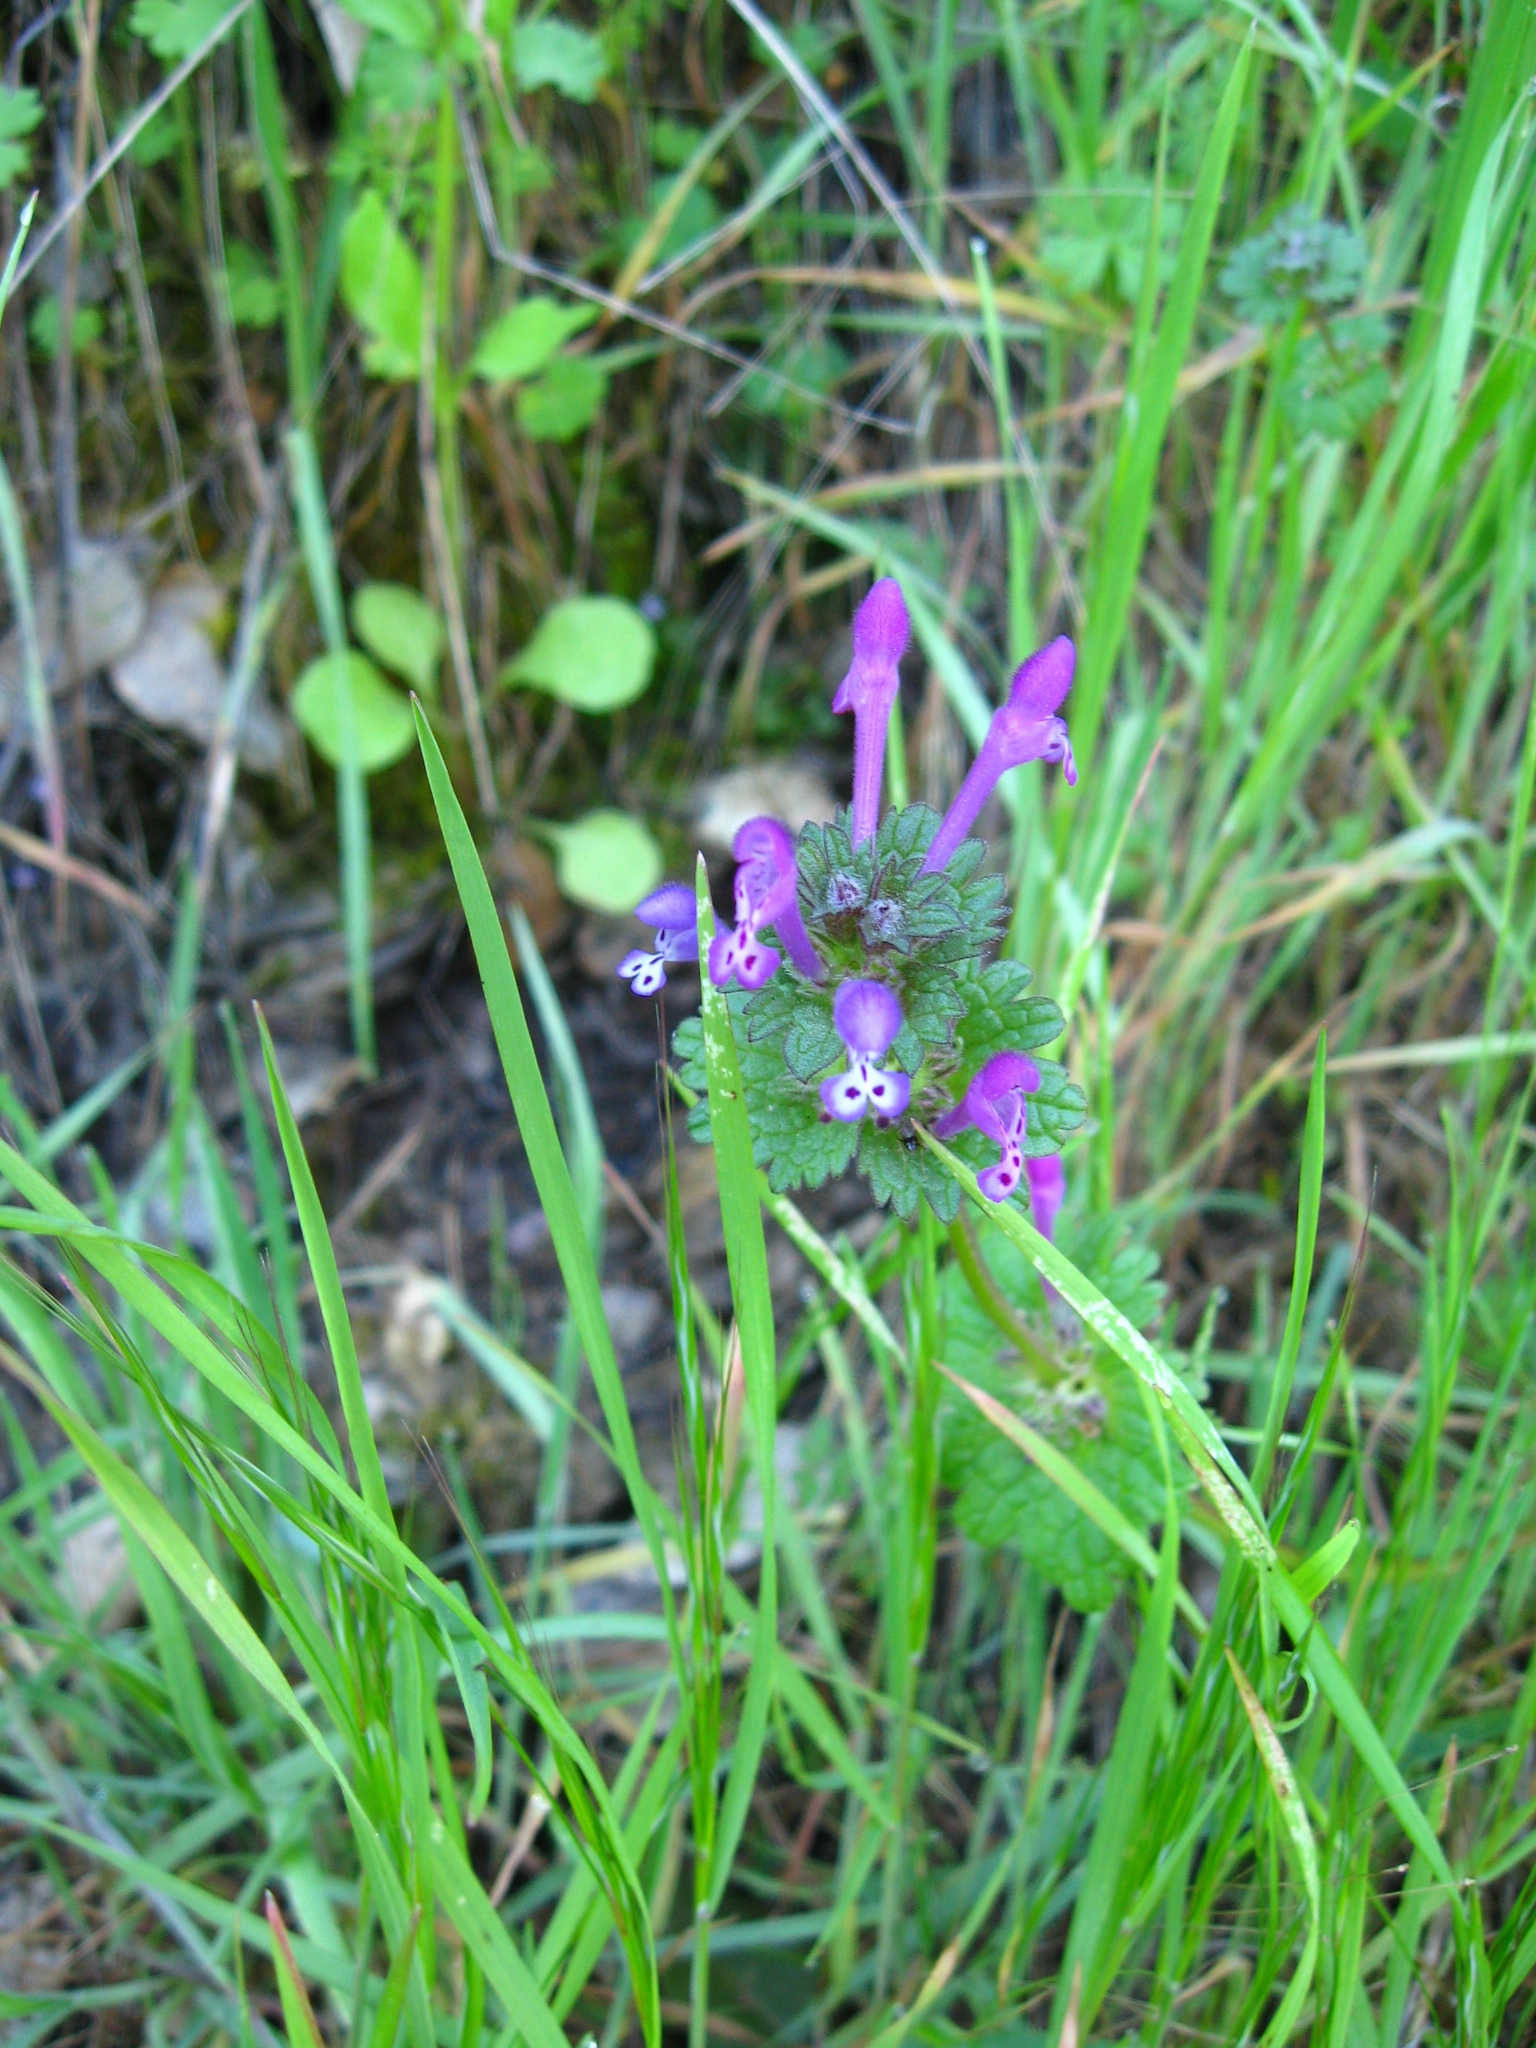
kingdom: Plantae
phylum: Tracheophyta
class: Magnoliopsida
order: Lamiales
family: Lamiaceae
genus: Lamium
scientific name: Lamium amplexicaule
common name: Henbit dead-nettle
